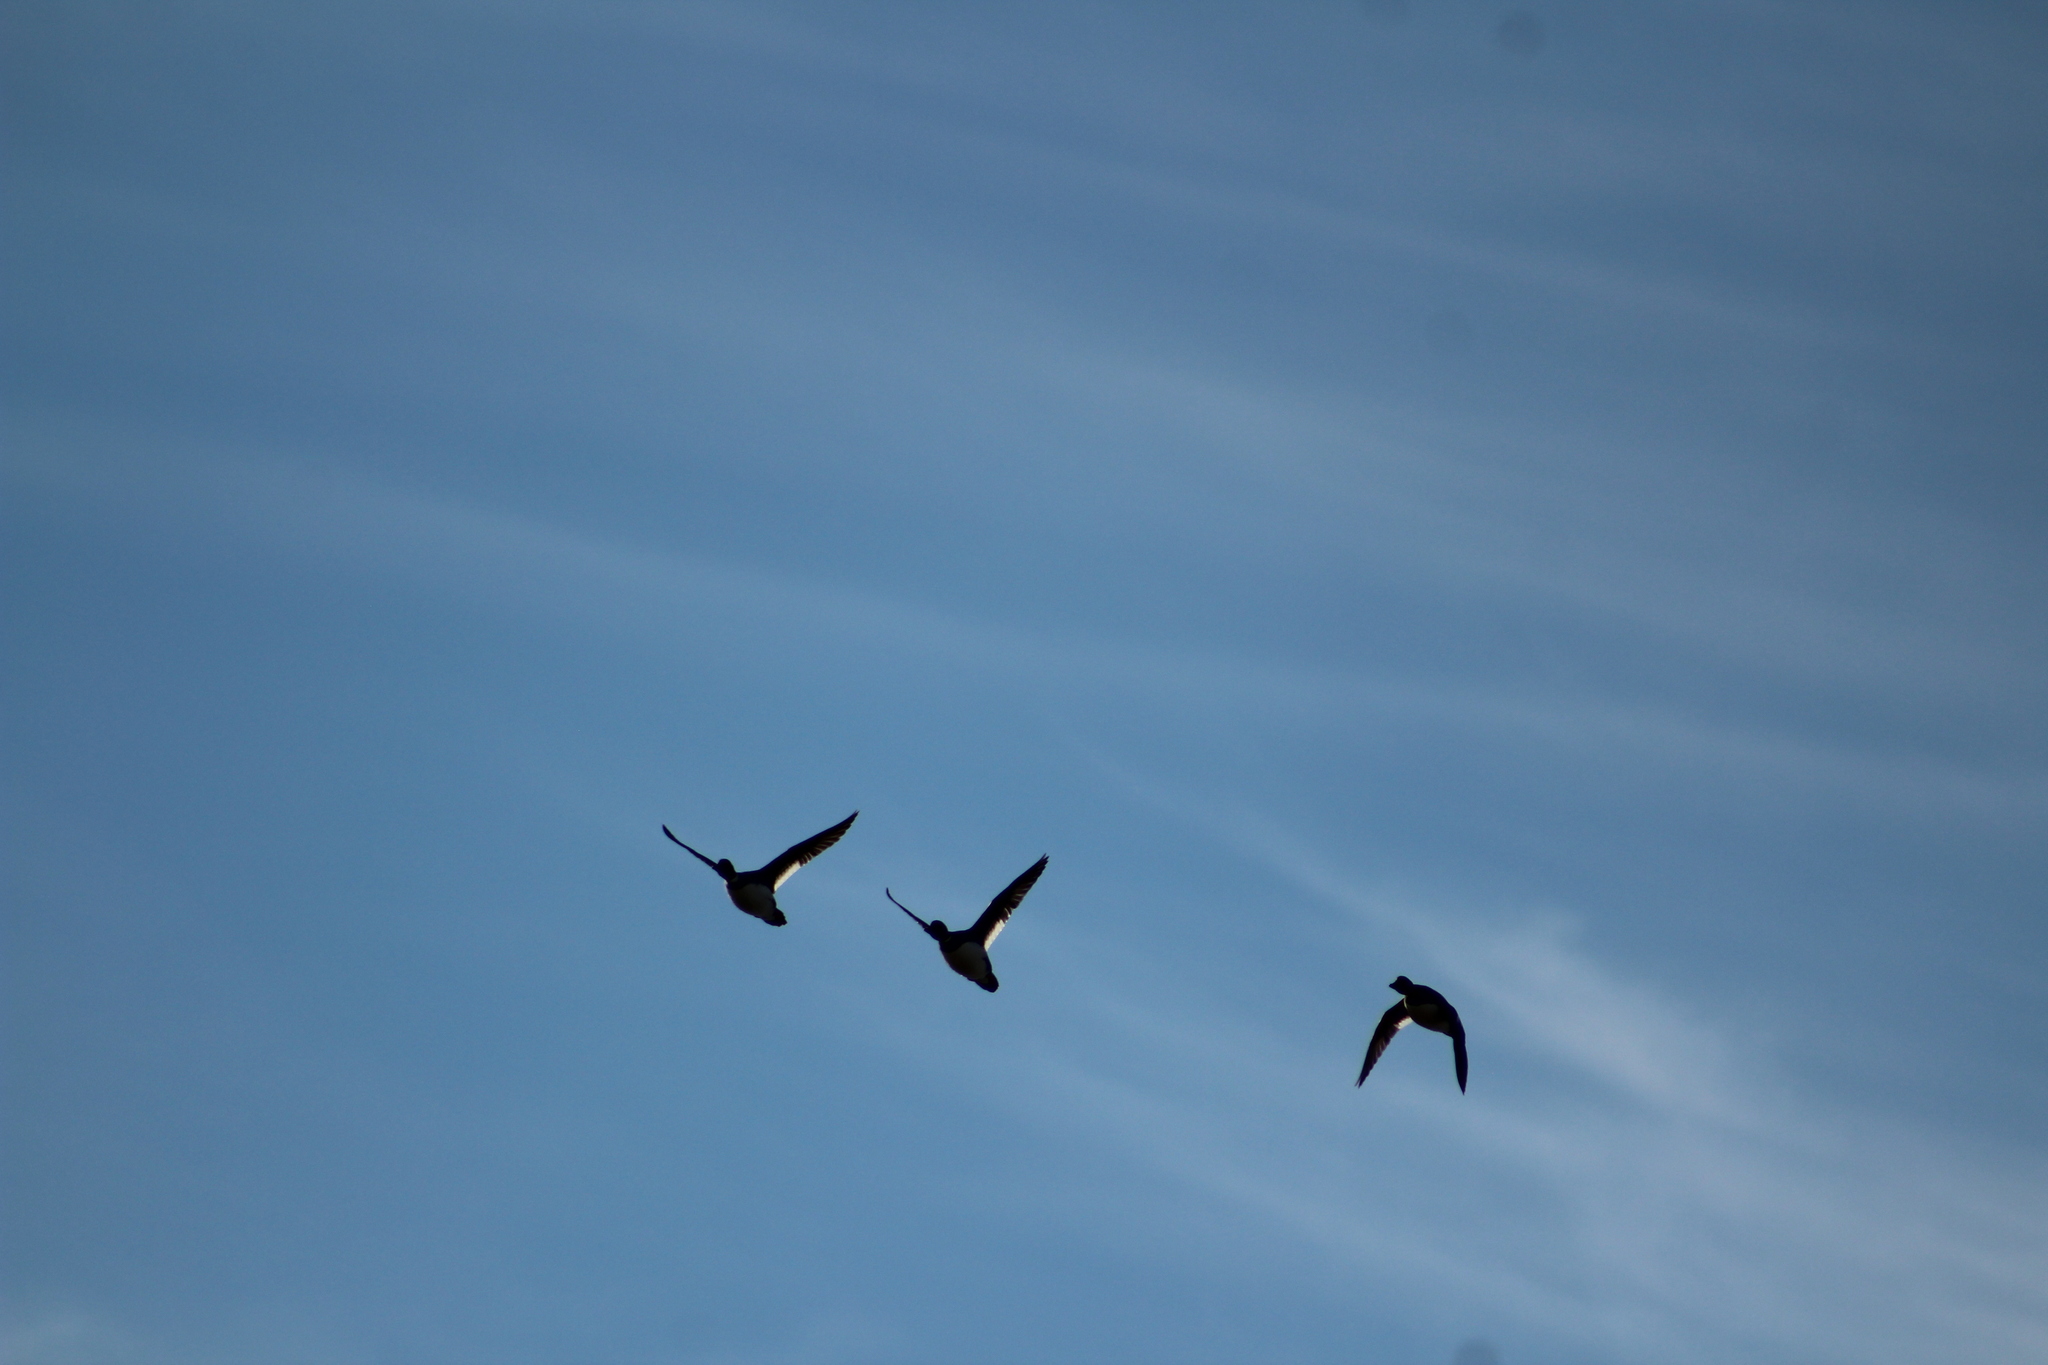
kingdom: Animalia
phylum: Chordata
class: Aves
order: Anseriformes
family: Anatidae
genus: Bucephala
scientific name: Bucephala clangula
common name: Common goldeneye
